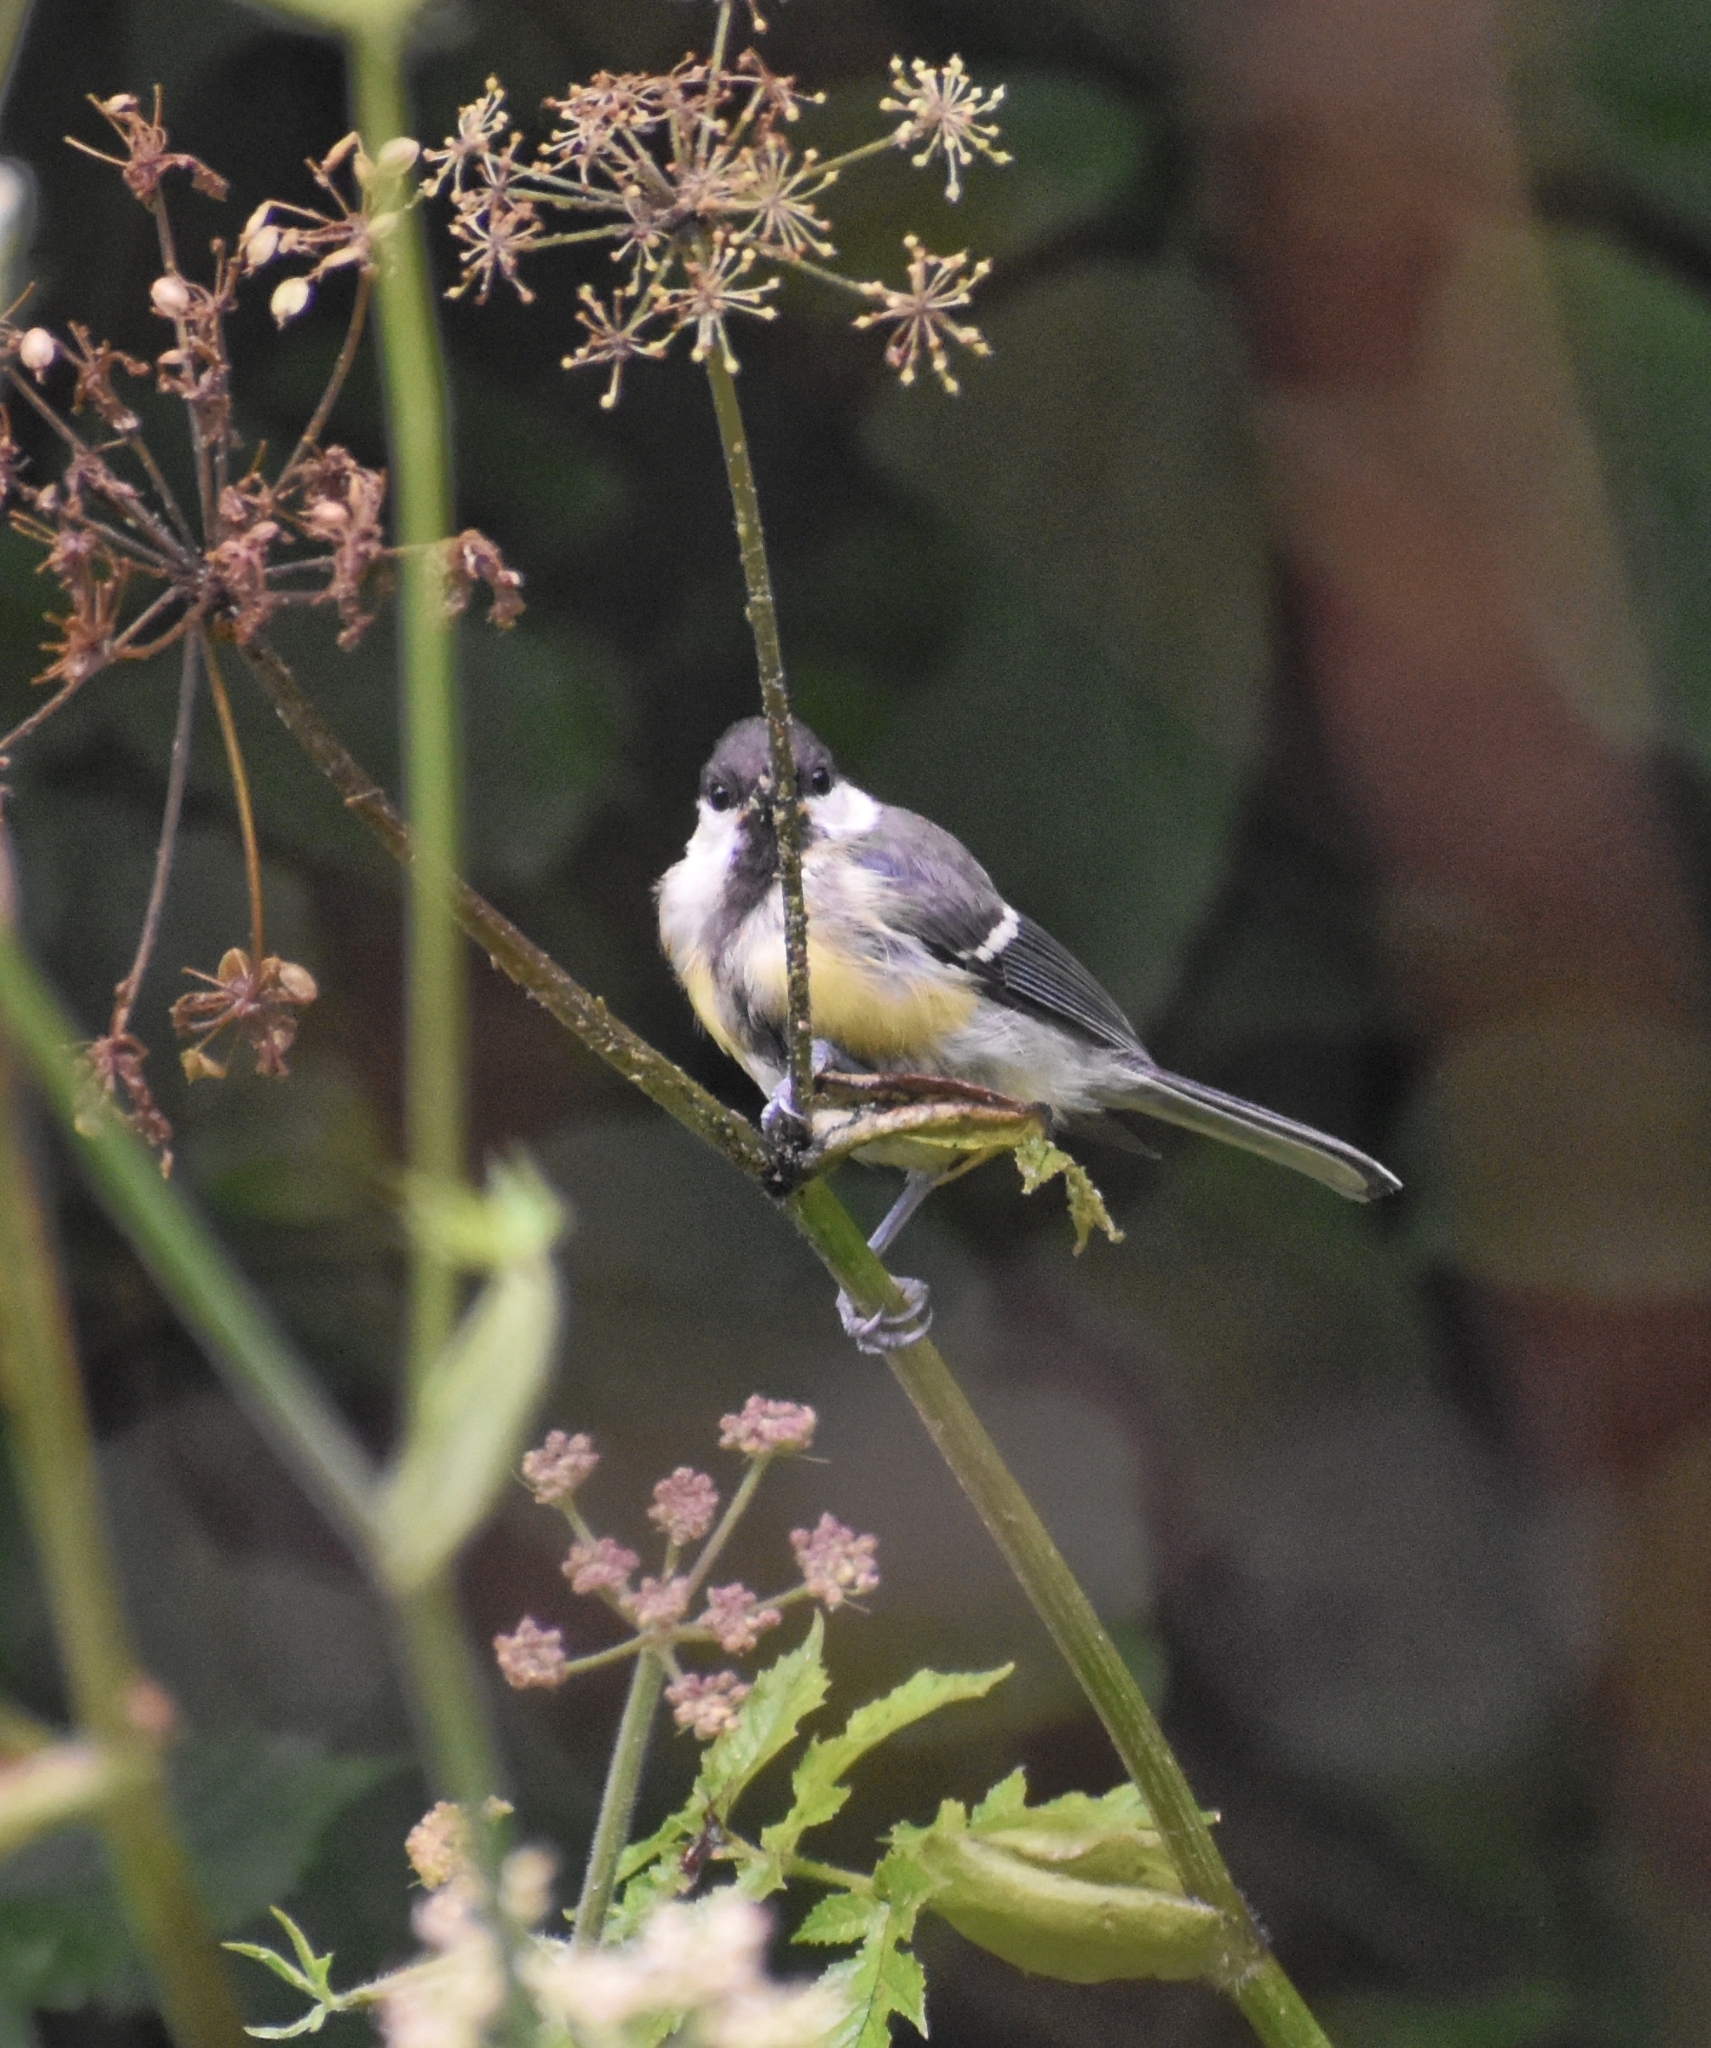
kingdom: Animalia
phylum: Chordata
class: Aves
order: Passeriformes
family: Paridae
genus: Parus
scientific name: Parus major
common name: Great tit
